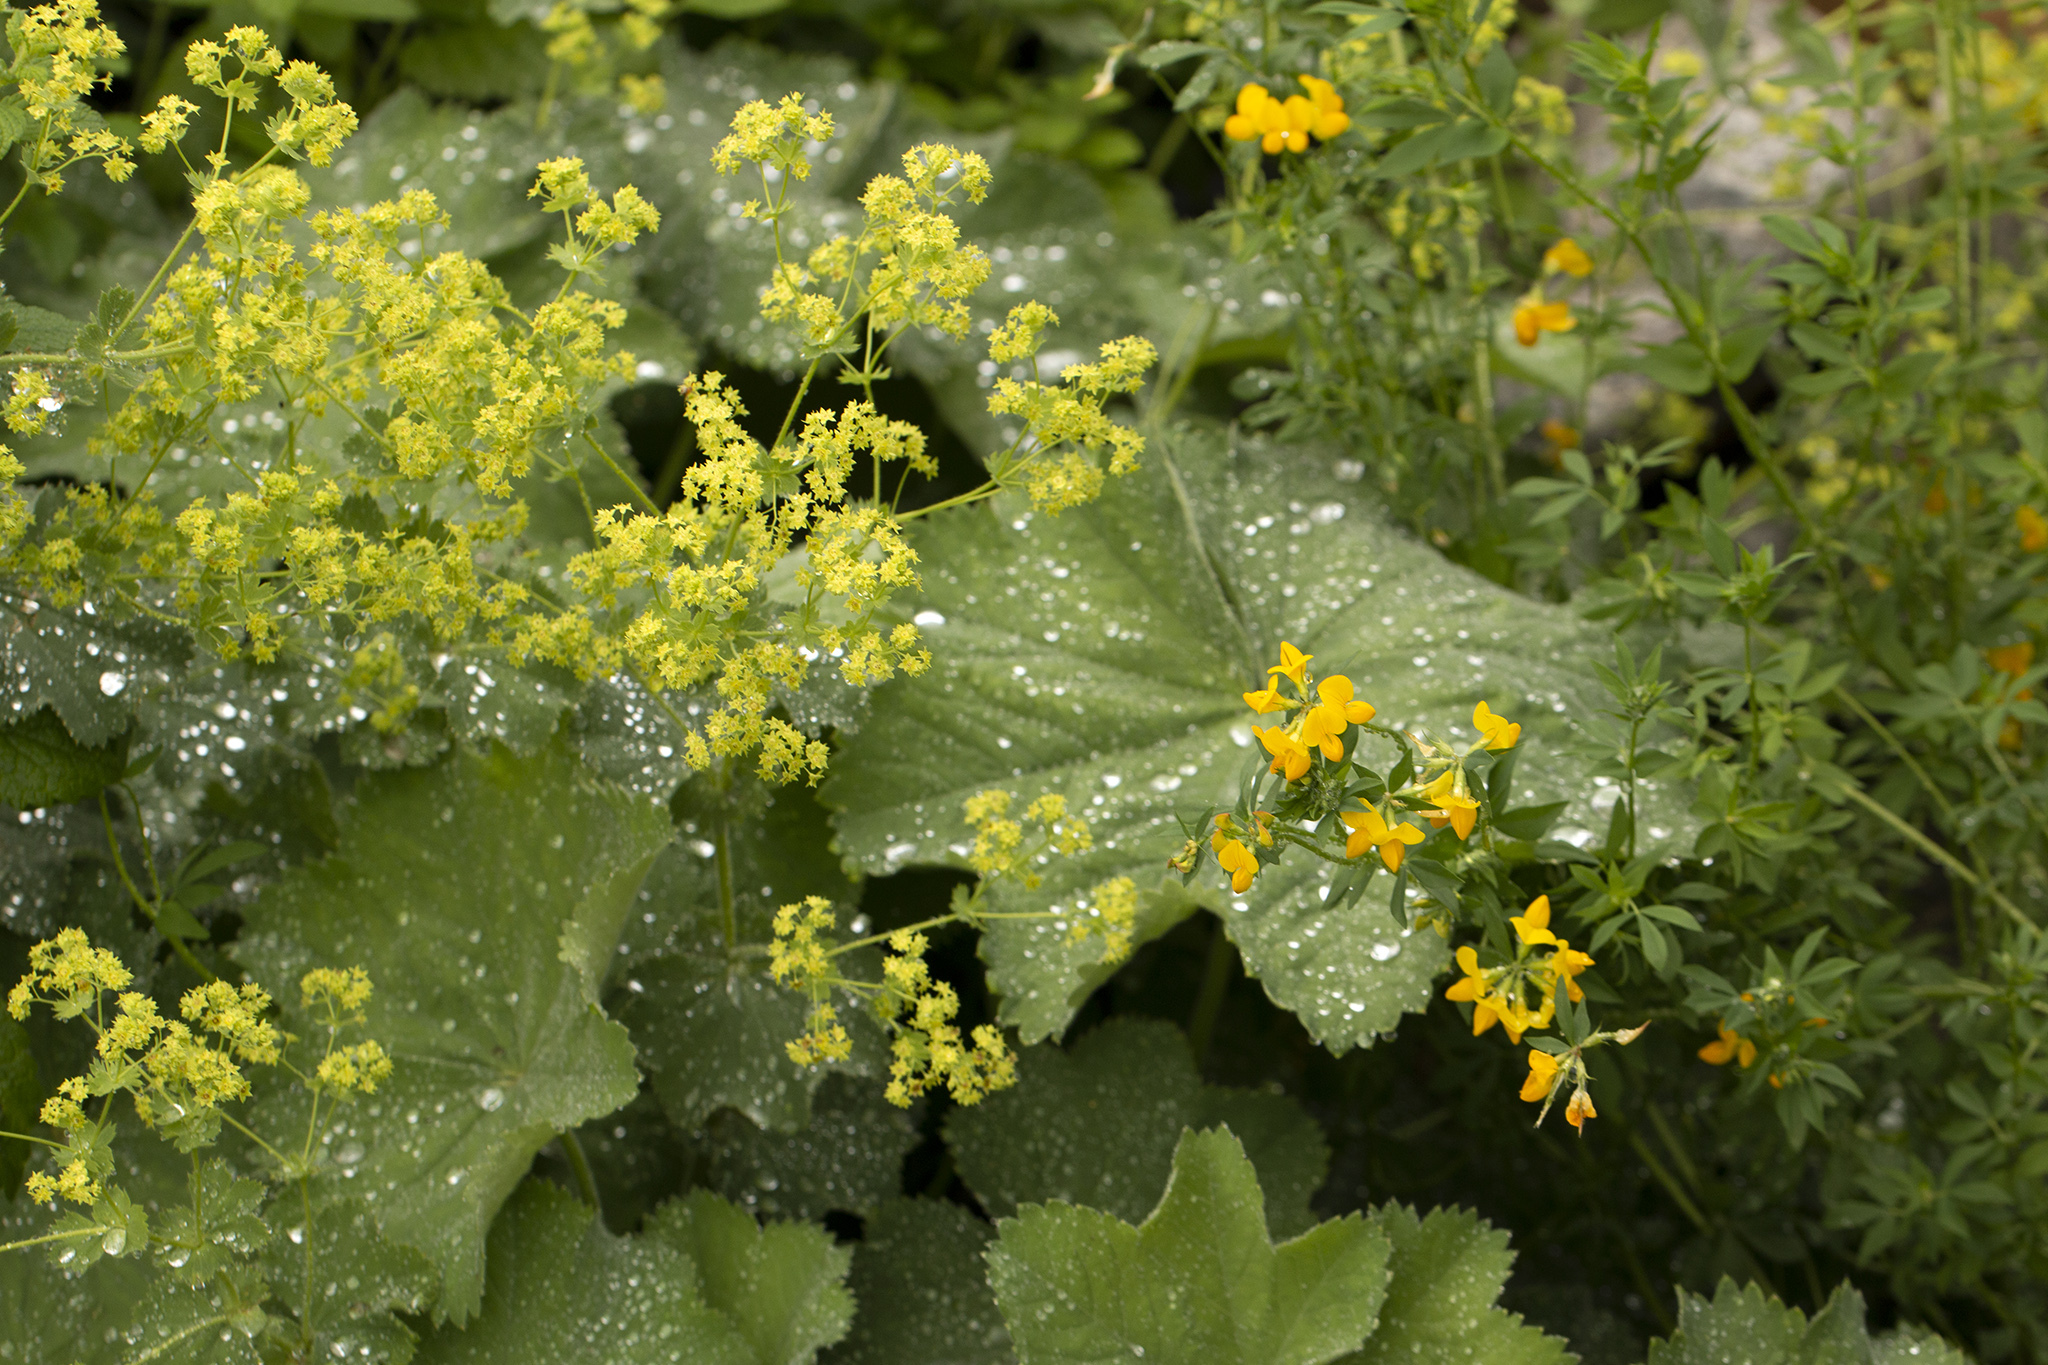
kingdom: Plantae
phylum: Tracheophyta
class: Magnoliopsida
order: Rosales
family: Rosaceae
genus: Alchemilla
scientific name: Alchemilla mollis
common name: Lady's-mantle
